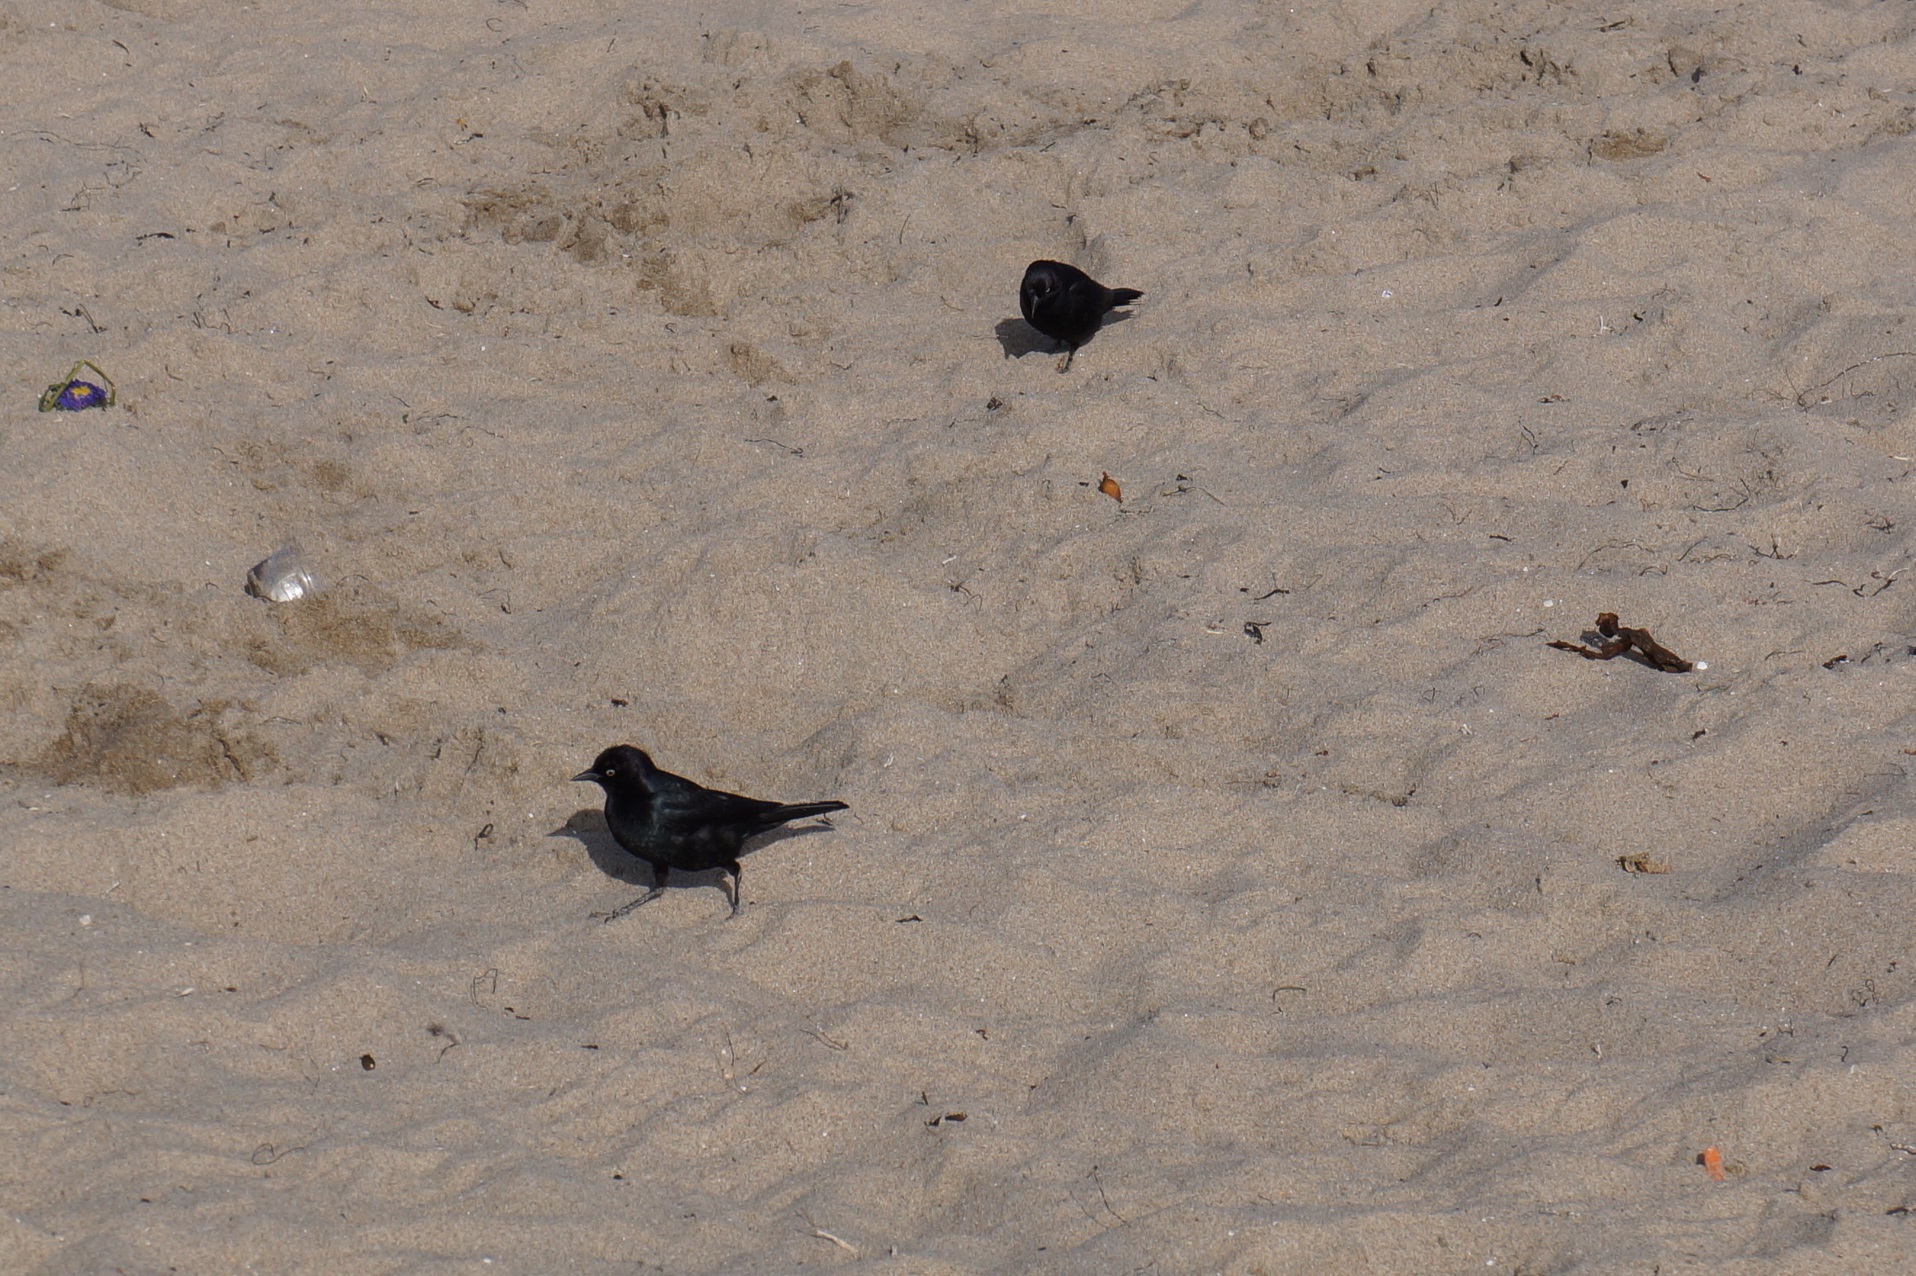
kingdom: Animalia
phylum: Chordata
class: Aves
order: Passeriformes
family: Icteridae
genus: Euphagus
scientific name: Euphagus cyanocephalus
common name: Brewer's blackbird
